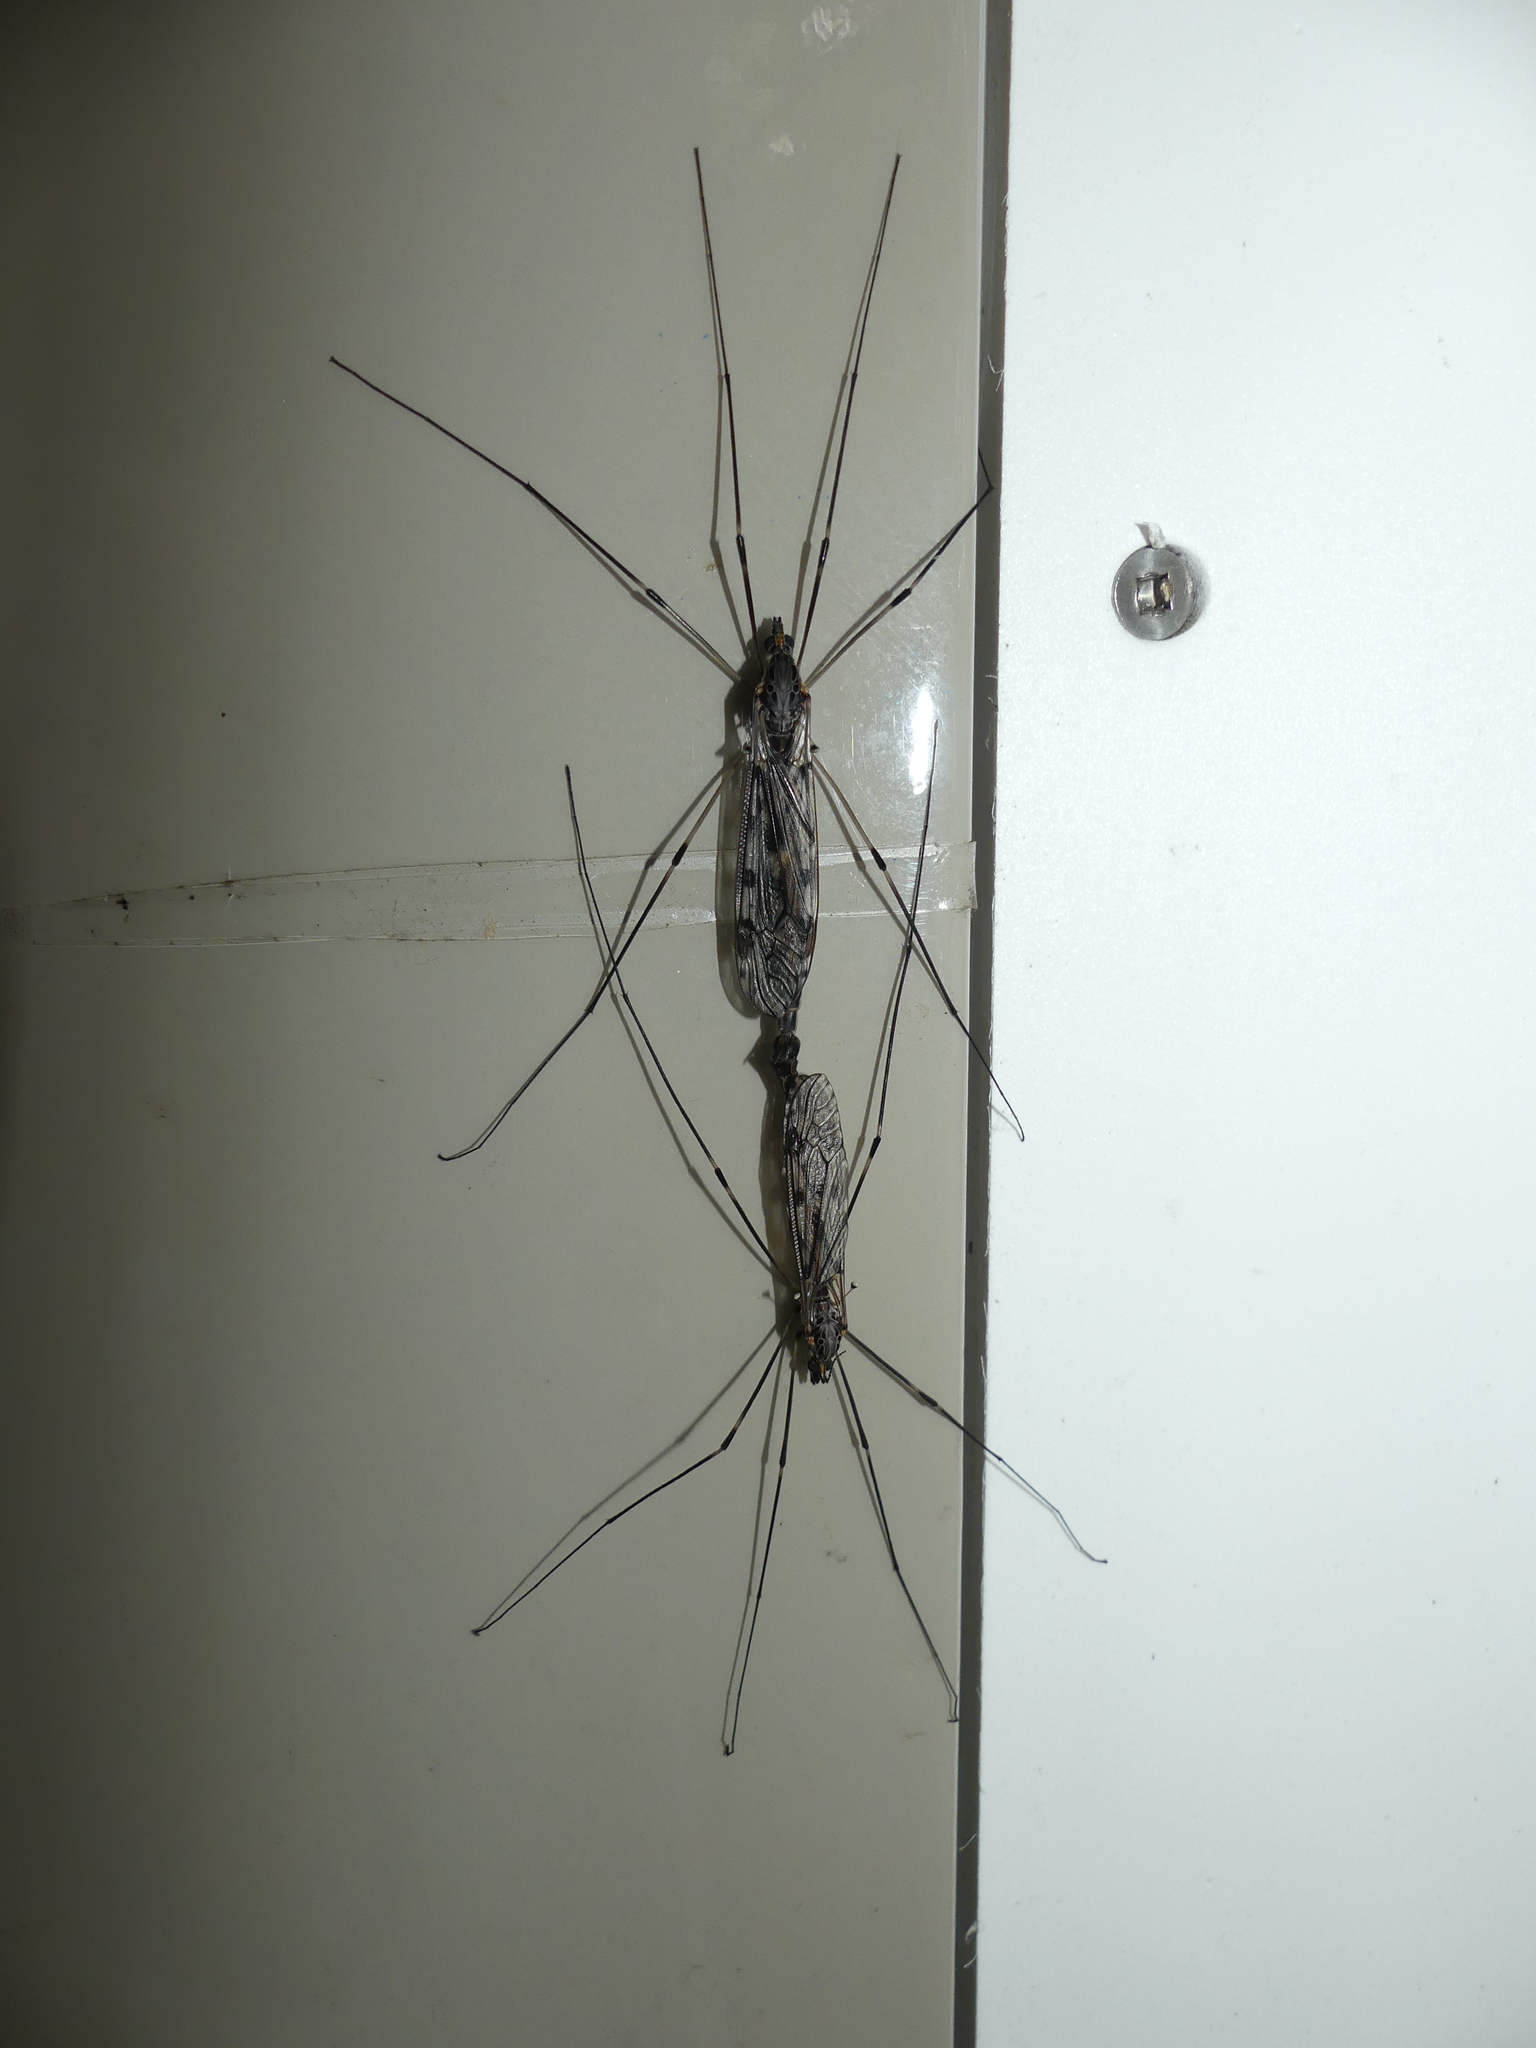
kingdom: Animalia
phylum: Arthropoda
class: Insecta
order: Diptera
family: Tipulidae
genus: Tipula
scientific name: Tipula abdominalis
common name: Giant crane fly
